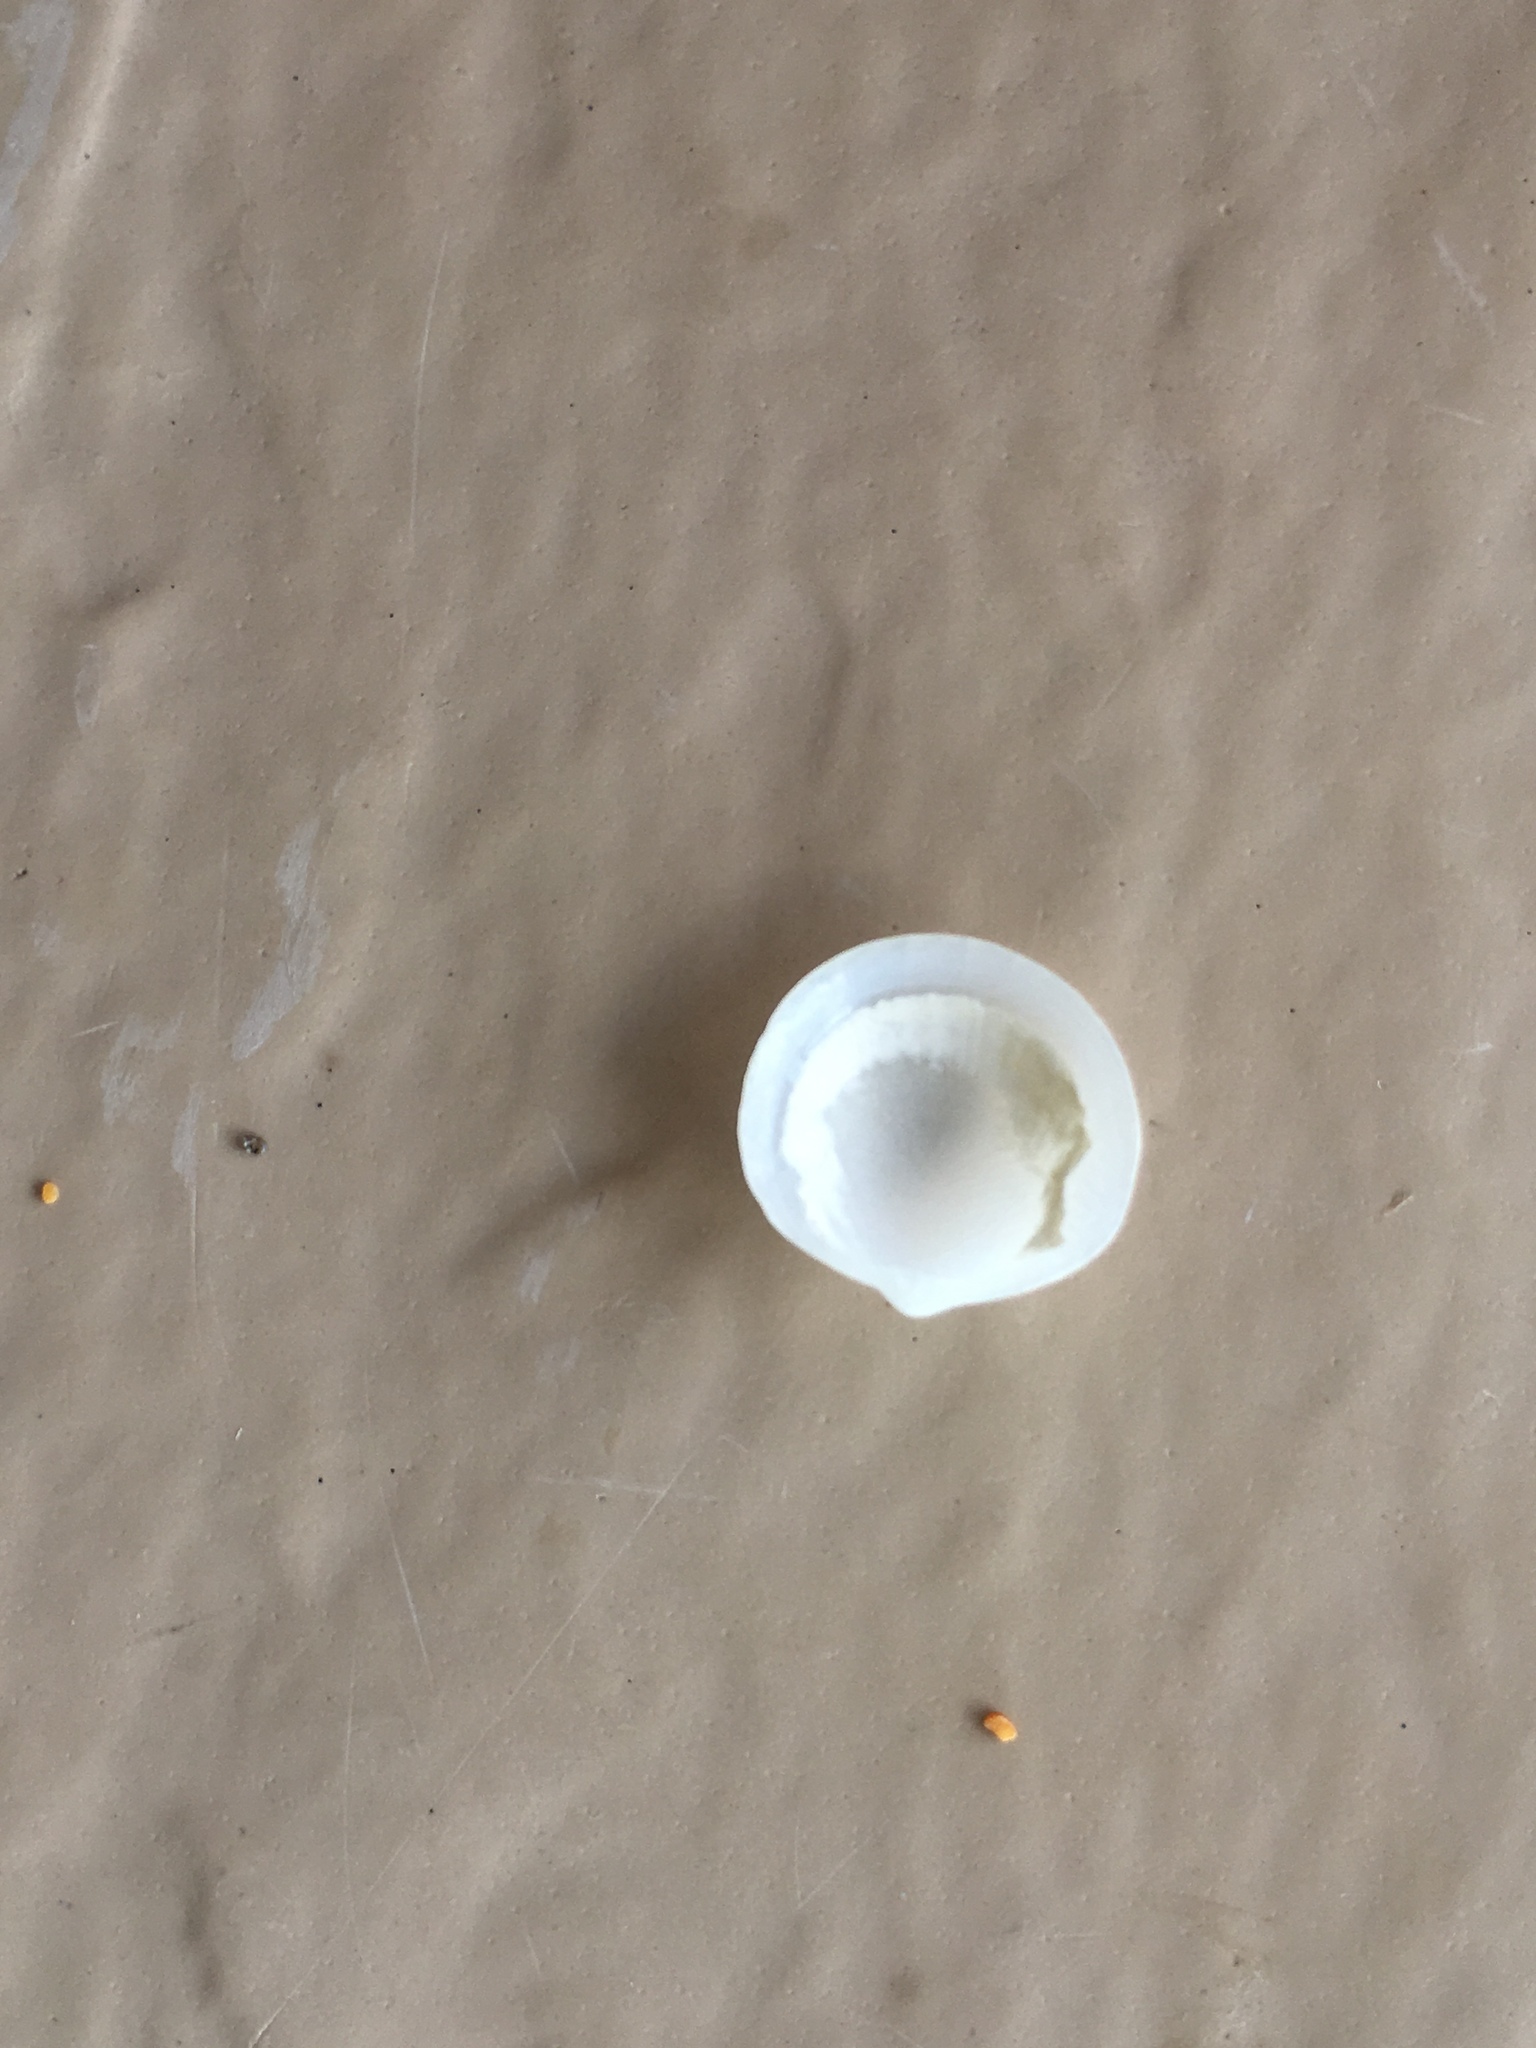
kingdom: Animalia
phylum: Mollusca
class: Bivalvia
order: Lucinida
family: Lucinidae
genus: Divalinga
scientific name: Divalinga quadrisulcata
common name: Cross-hatched lucine
